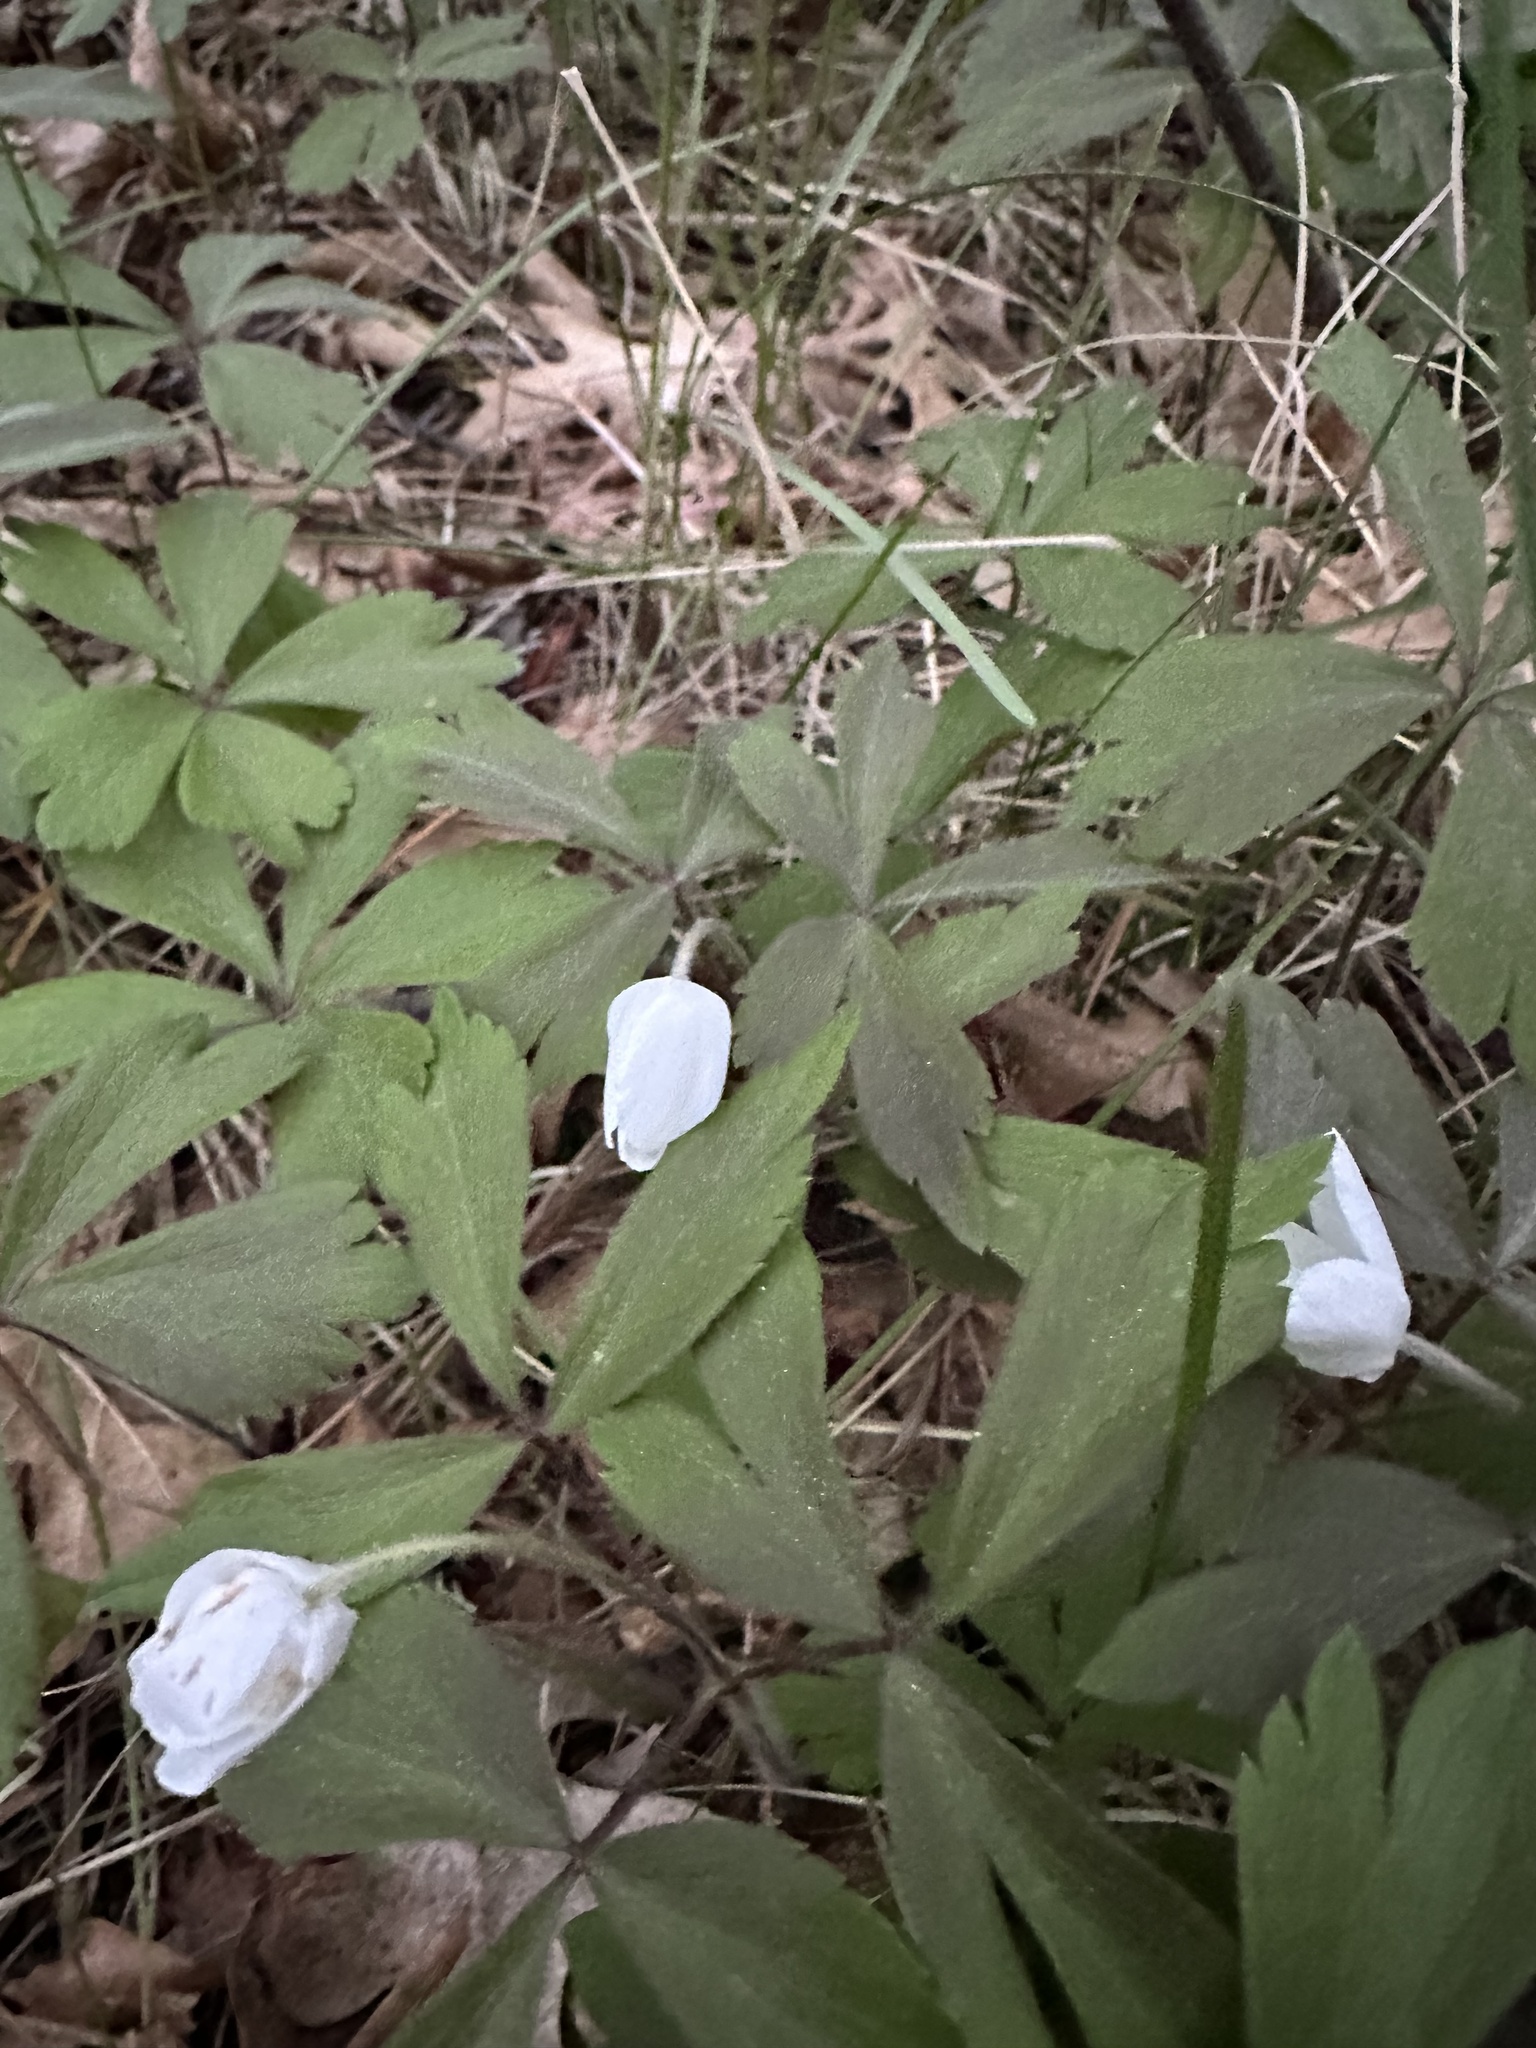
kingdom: Plantae
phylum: Tracheophyta
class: Magnoliopsida
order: Ranunculales
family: Ranunculaceae
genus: Anemone
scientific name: Anemone quinquefolia
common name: Wood anemone
